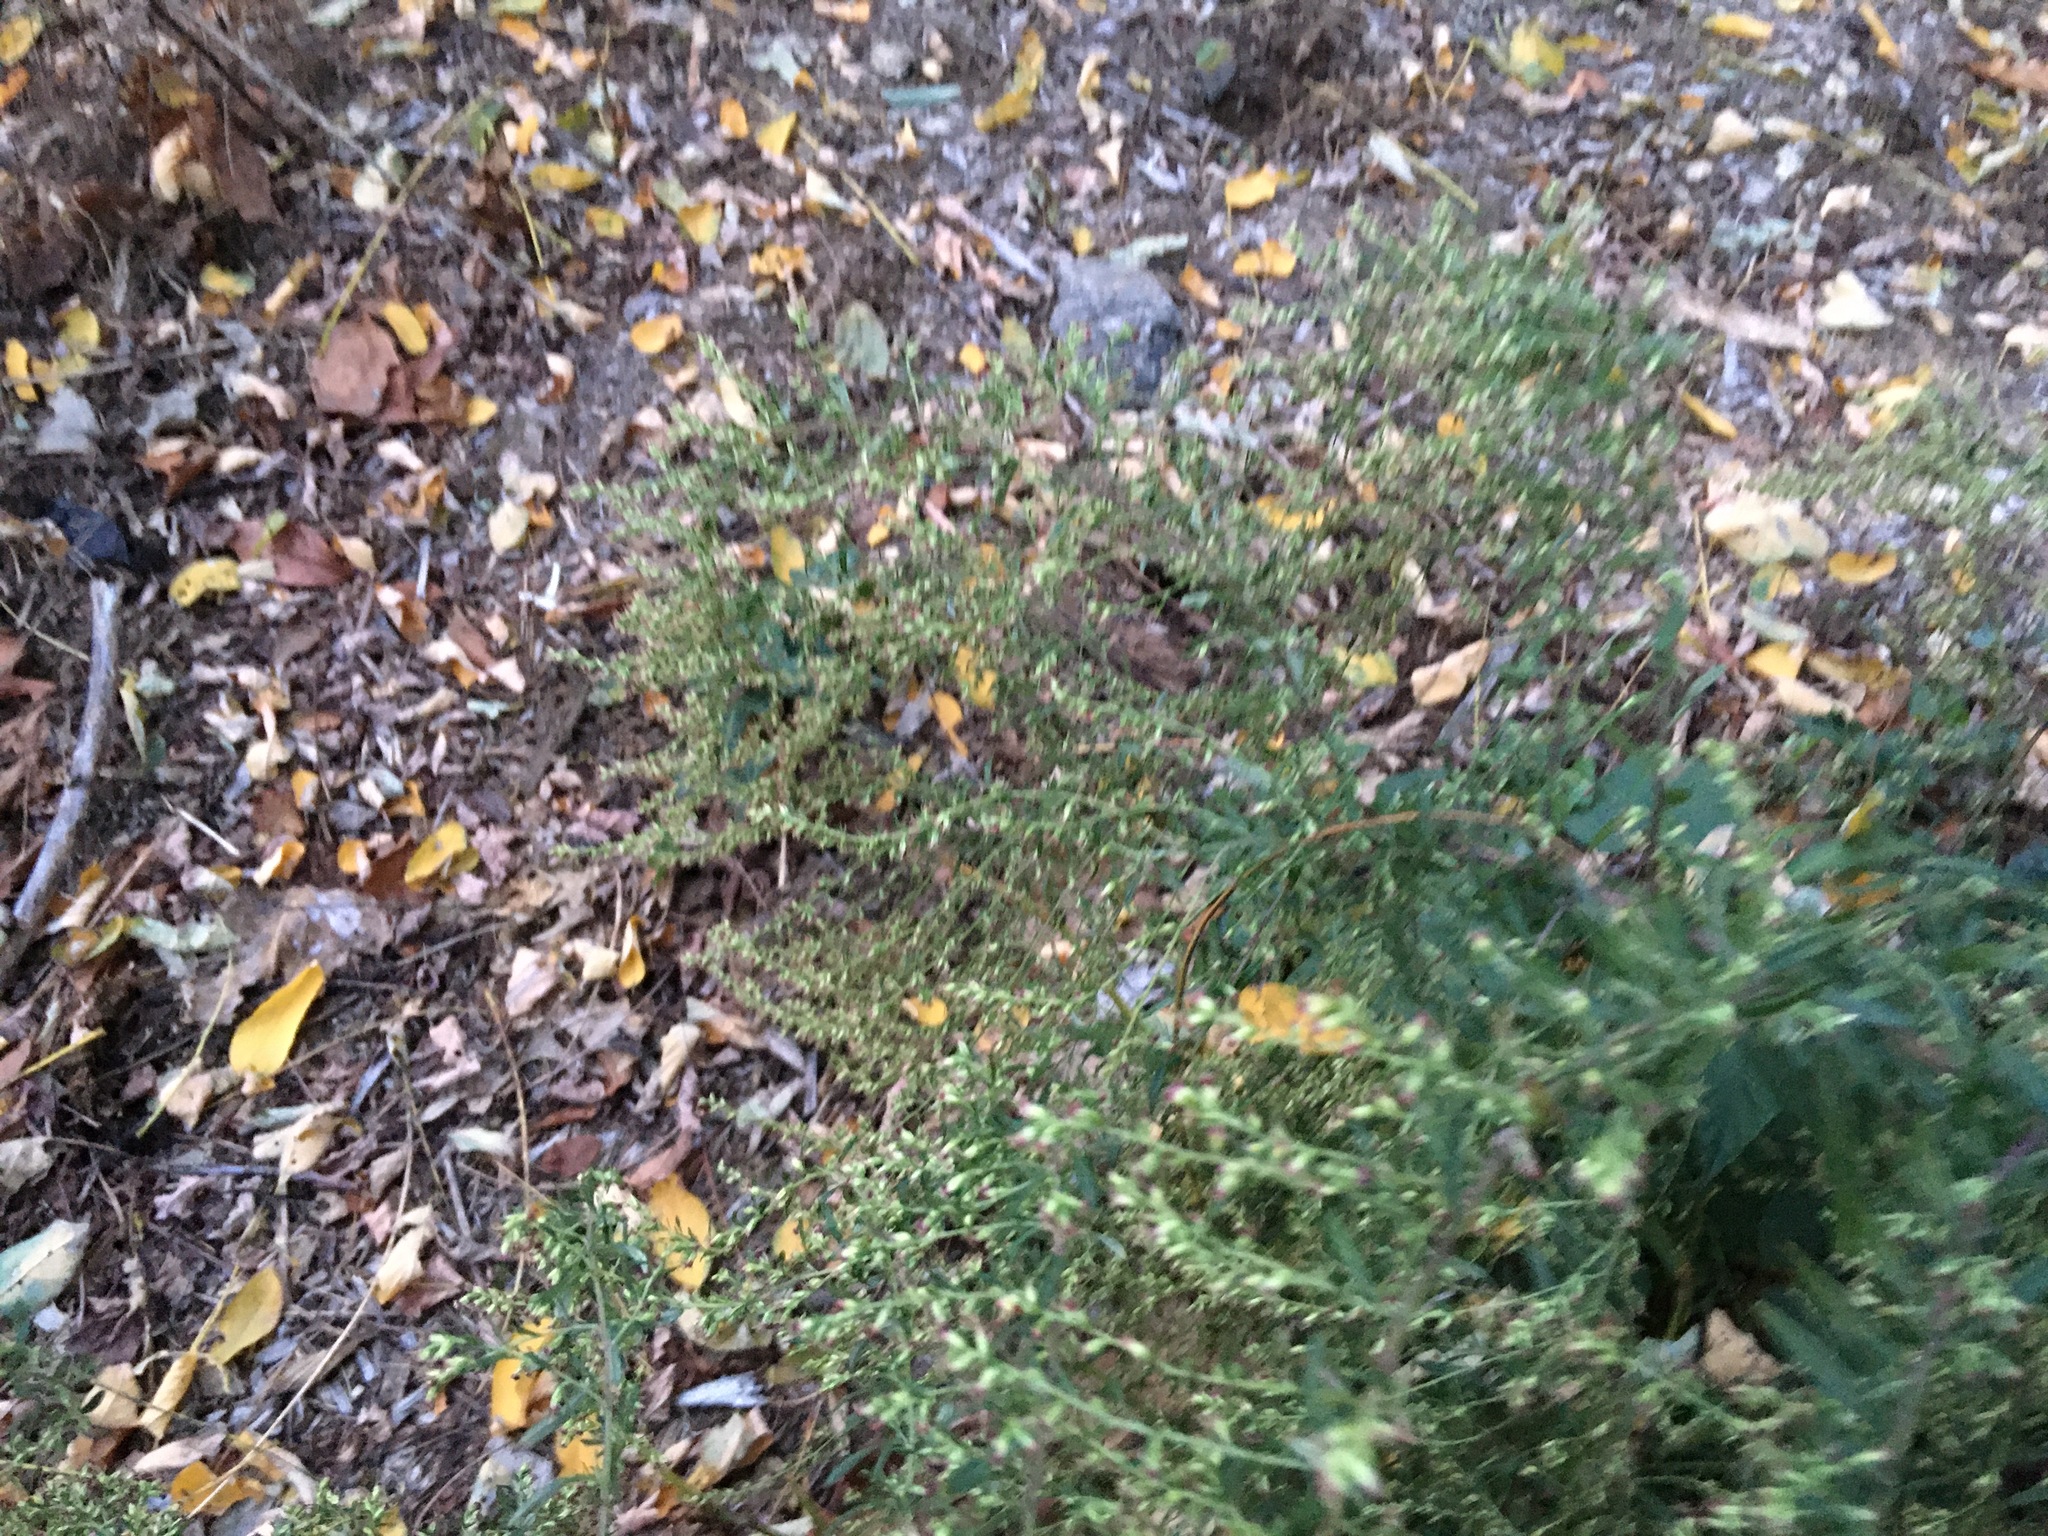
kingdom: Plantae
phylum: Tracheophyta
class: Magnoliopsida
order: Asterales
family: Asteraceae
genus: Artemisia
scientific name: Artemisia vulgaris
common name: Mugwort
